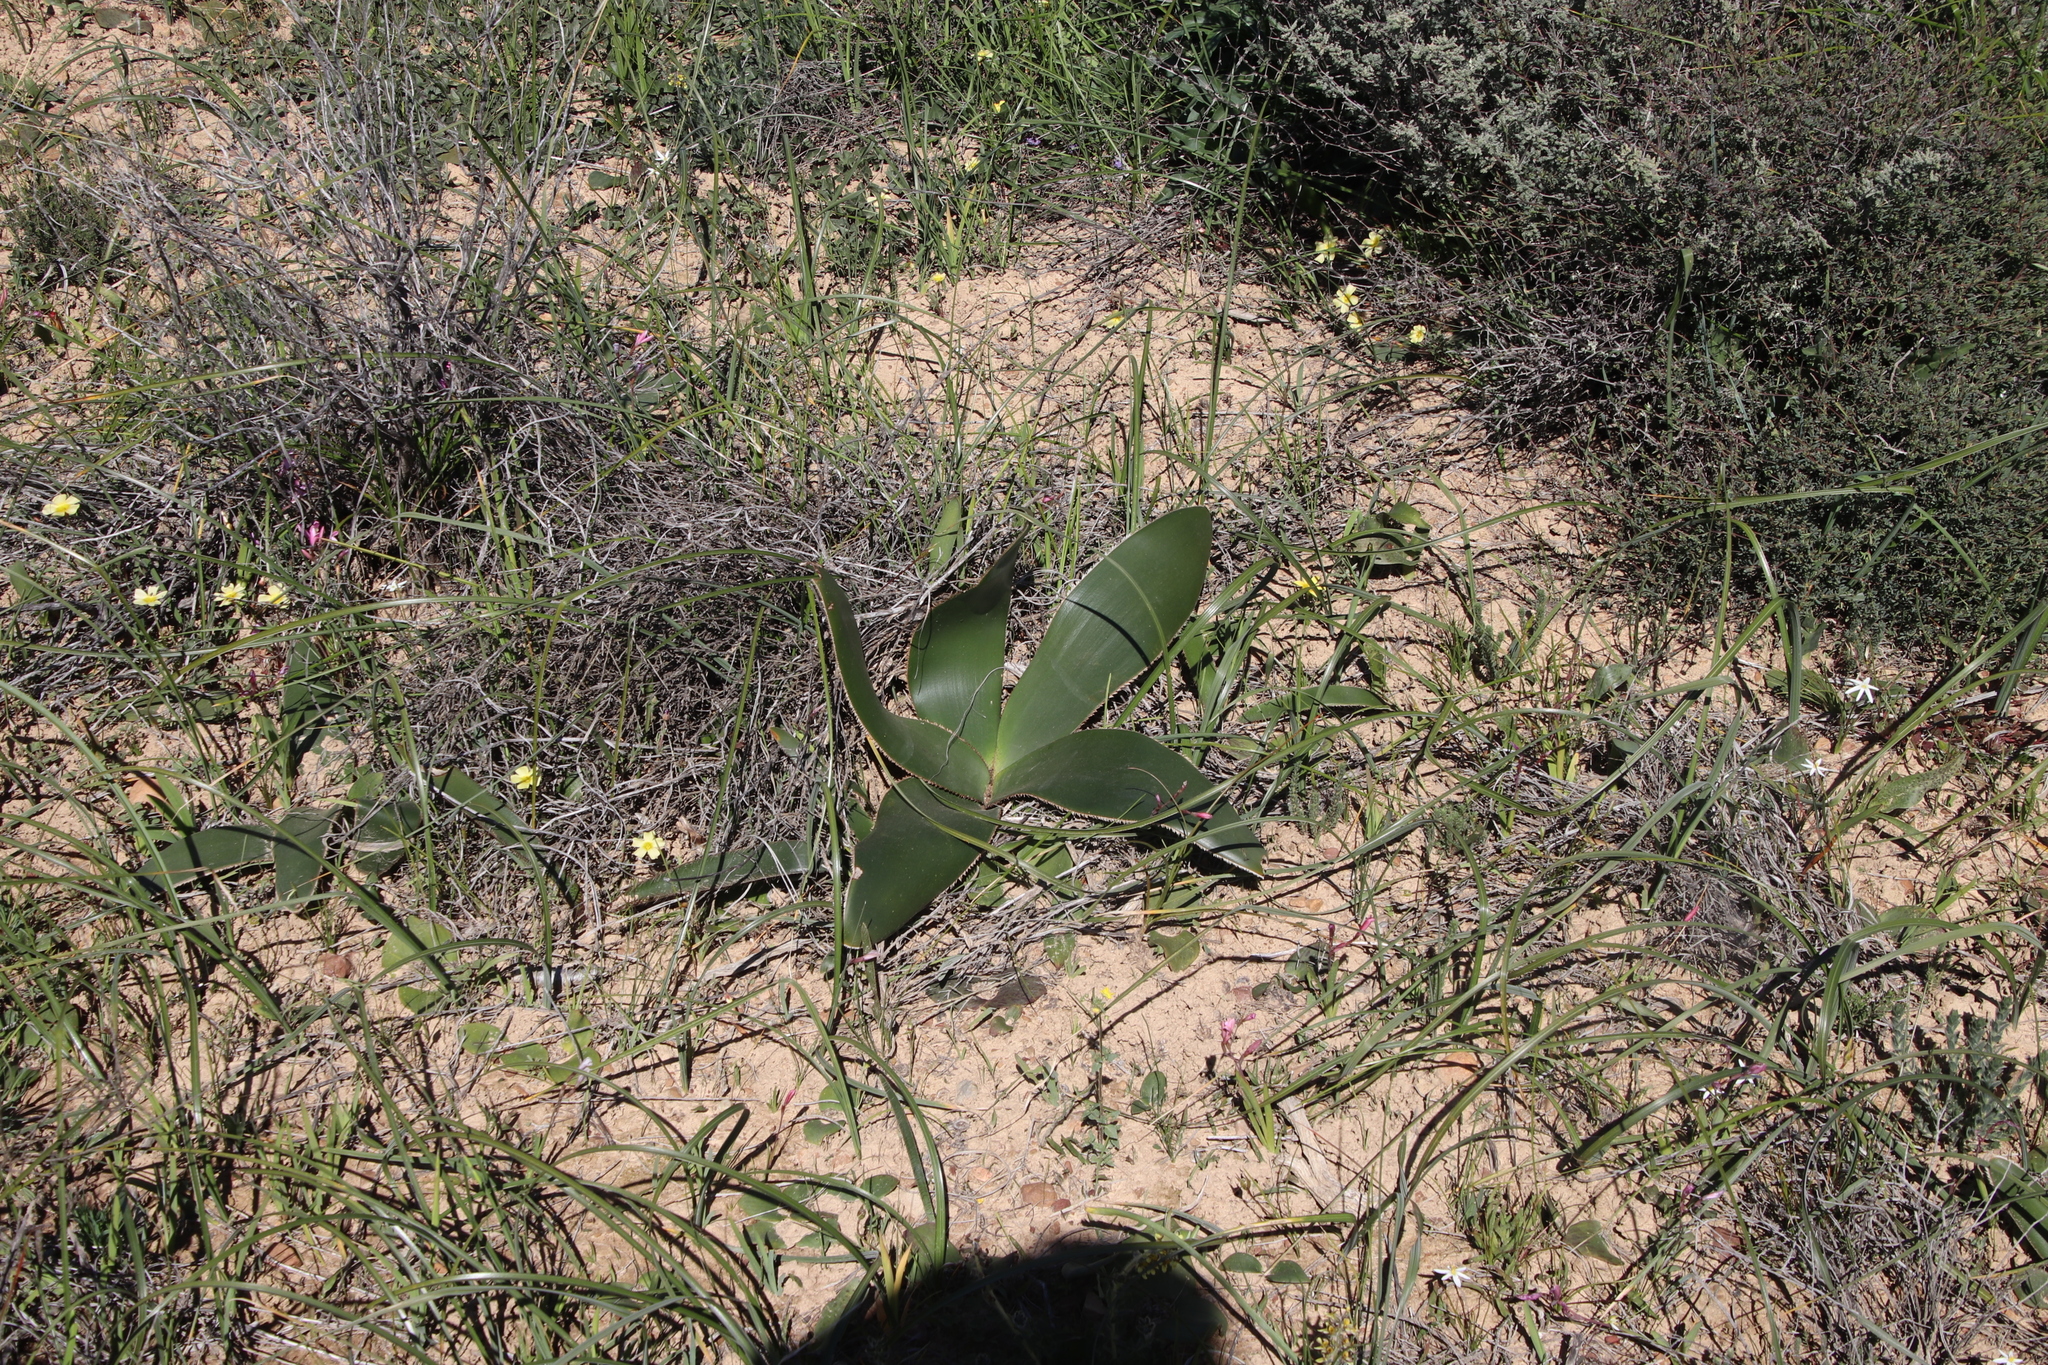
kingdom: Plantae
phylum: Tracheophyta
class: Liliopsida
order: Asparagales
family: Amaryllidaceae
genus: Crossyne
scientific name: Crossyne flava
